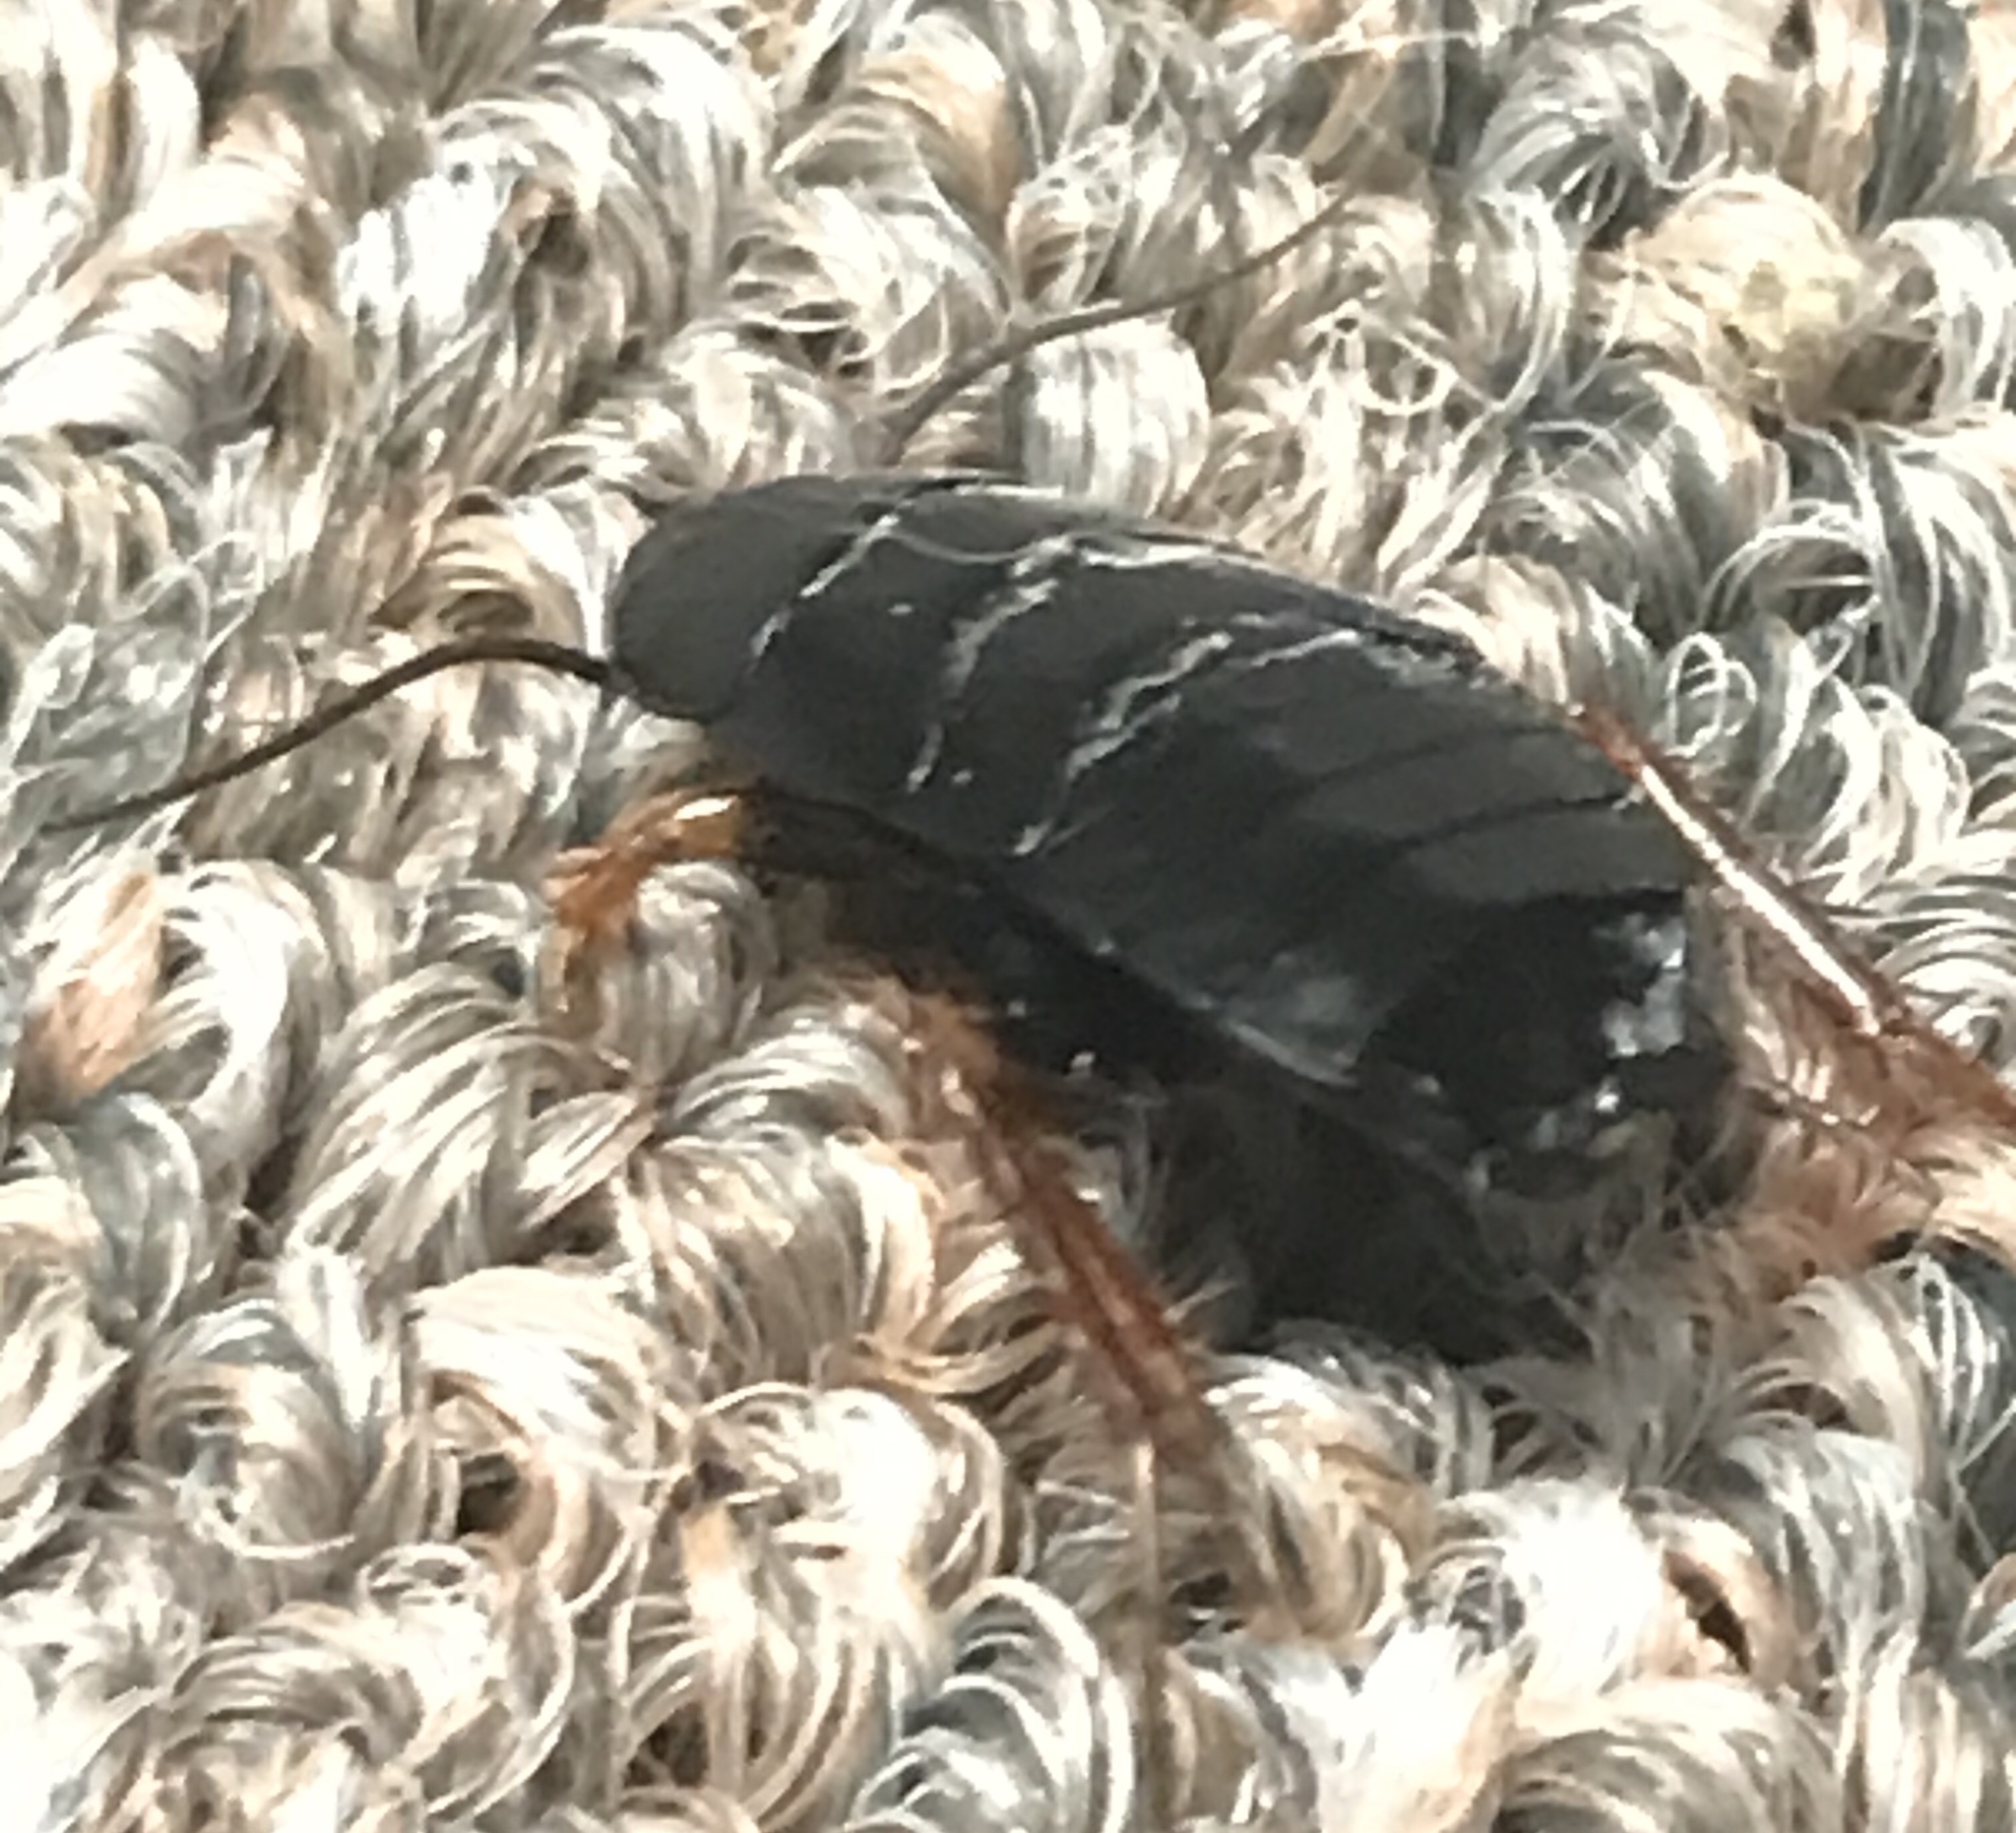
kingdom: Animalia
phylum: Arthropoda
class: Insecta
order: Blattodea
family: Ectobiidae
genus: Ischnoptera
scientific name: Ischnoptera deropeltiformis
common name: Dark wood cockroach
